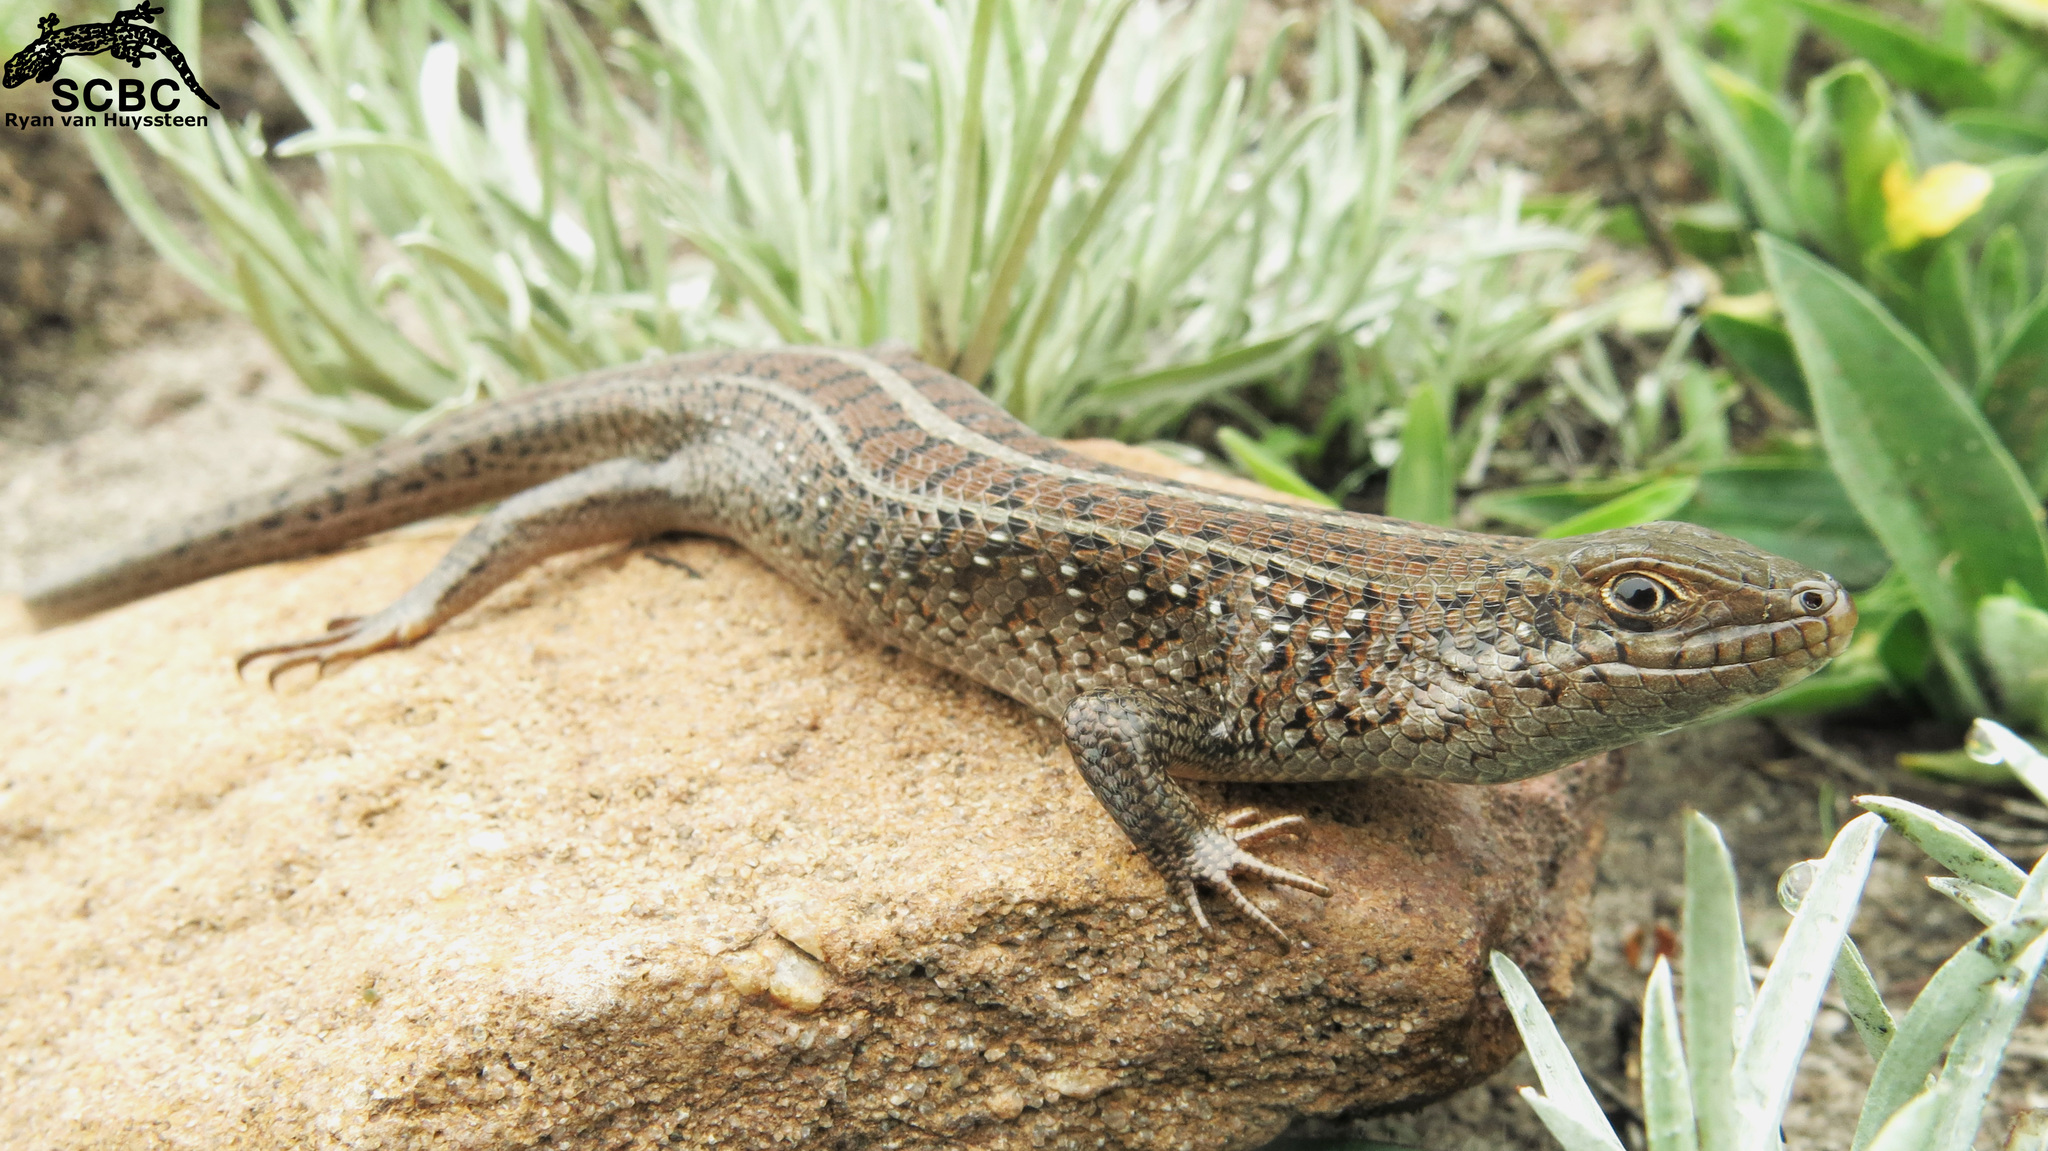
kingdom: Animalia
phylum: Chordata
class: Squamata
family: Scincidae
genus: Trachylepis
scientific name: Trachylepis capensis
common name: Cape skink
